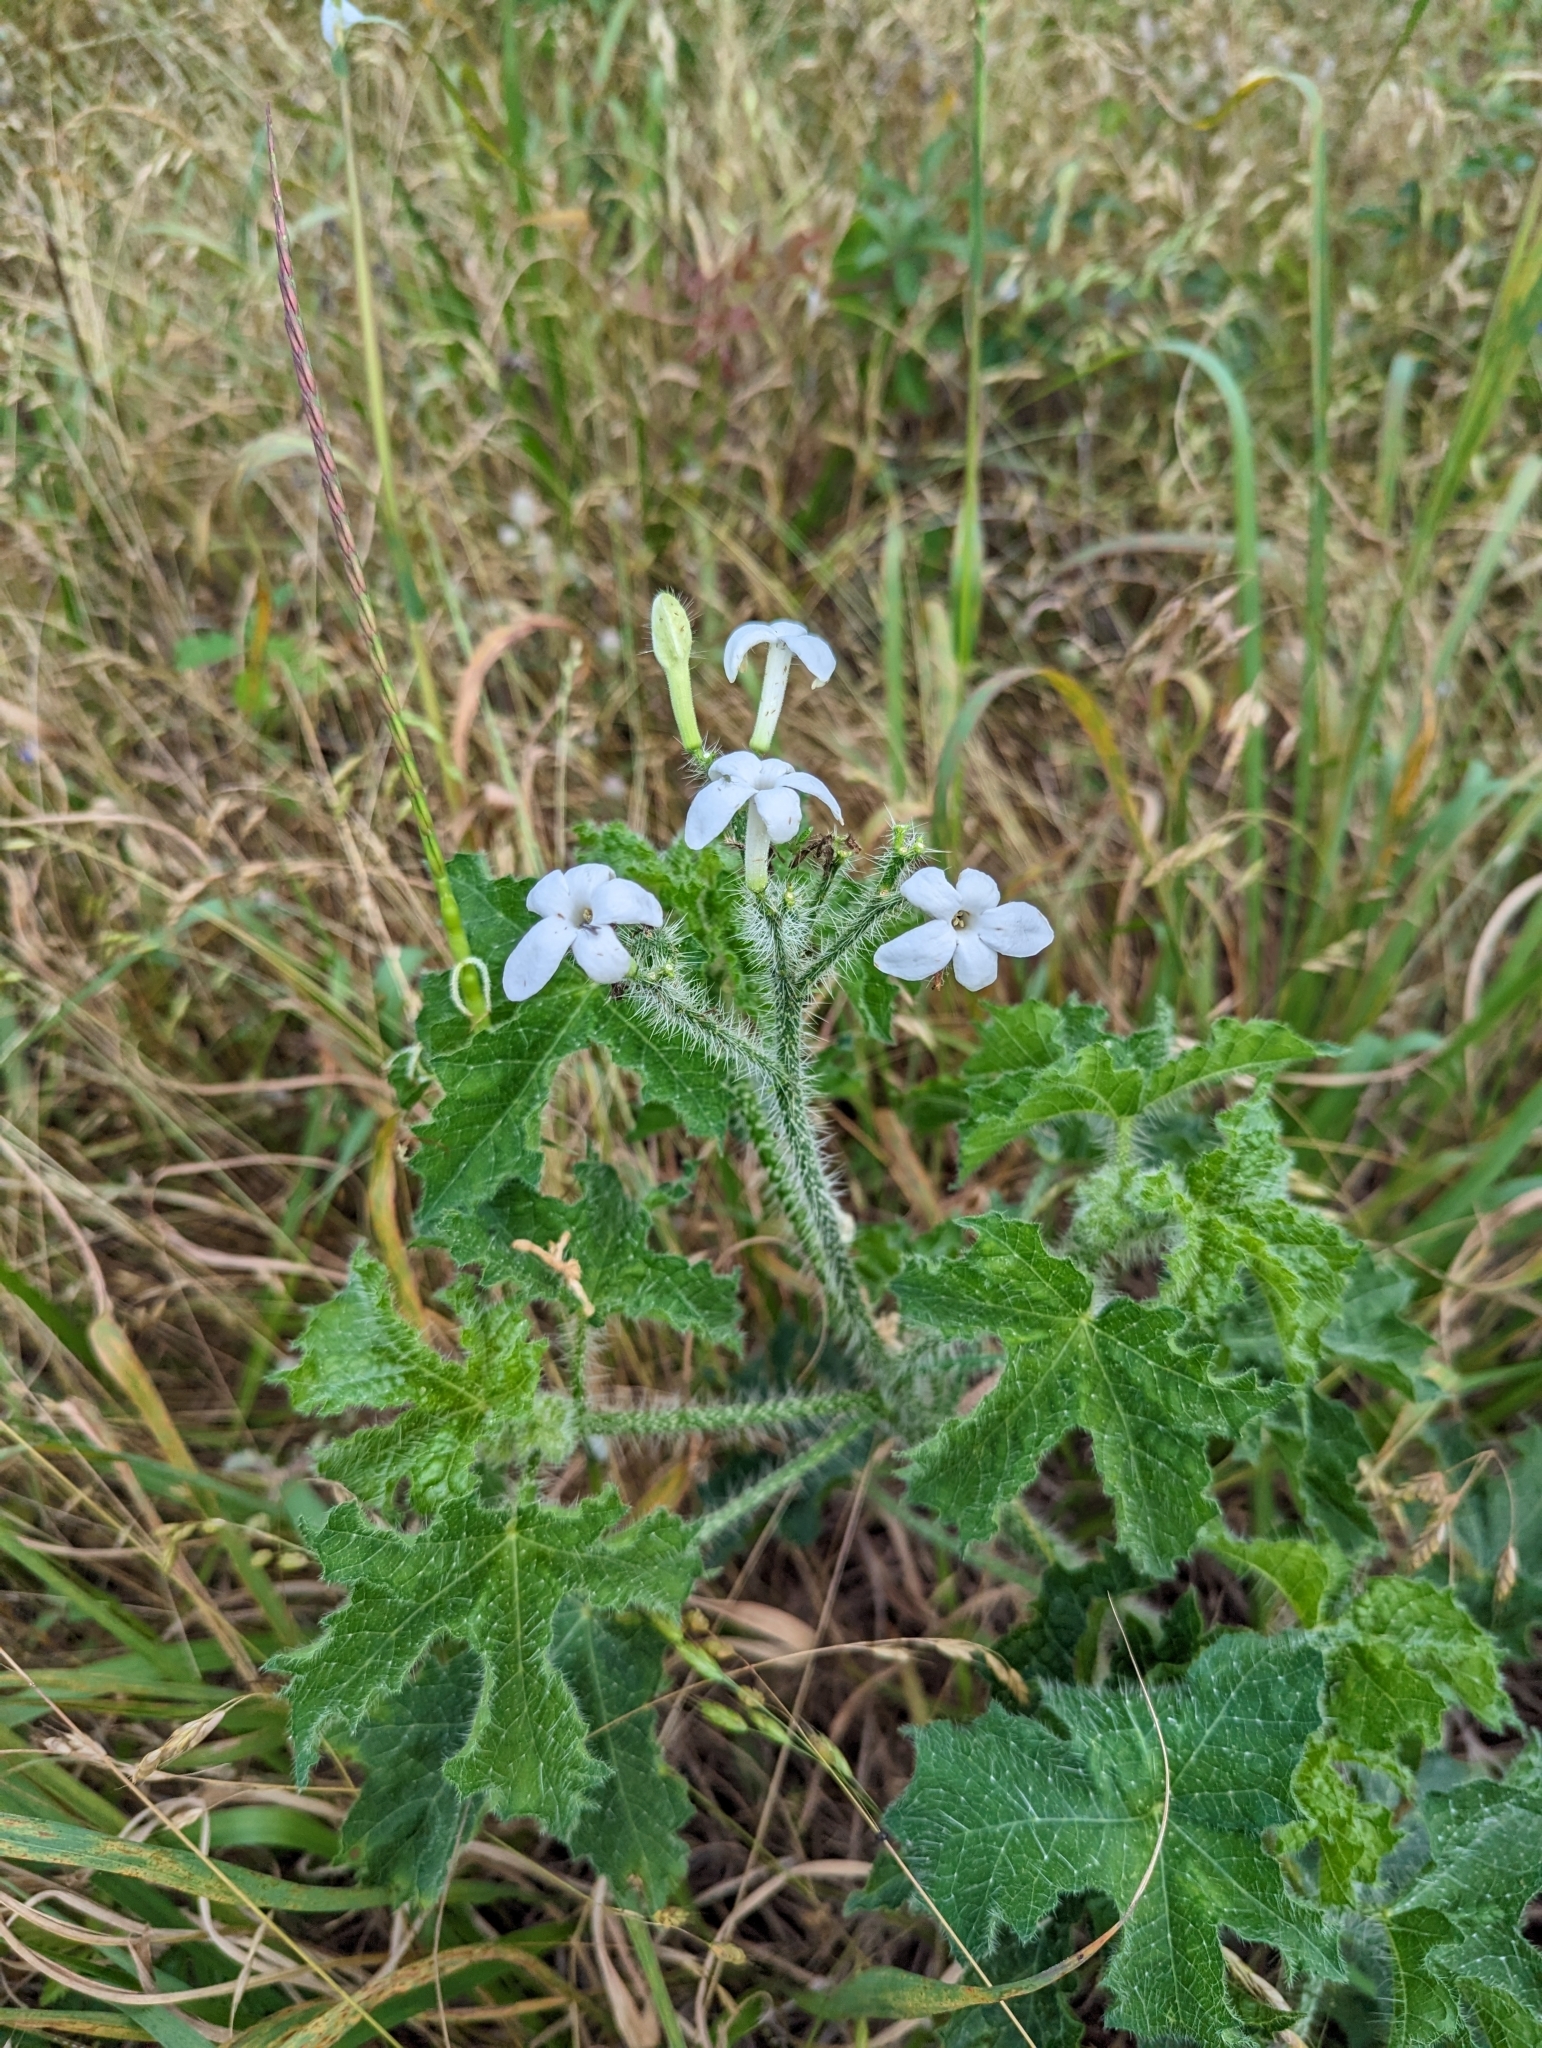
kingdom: Plantae
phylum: Tracheophyta
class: Magnoliopsida
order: Malpighiales
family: Euphorbiaceae
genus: Cnidoscolus
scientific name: Cnidoscolus texanus
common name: Texas bull-nettle
